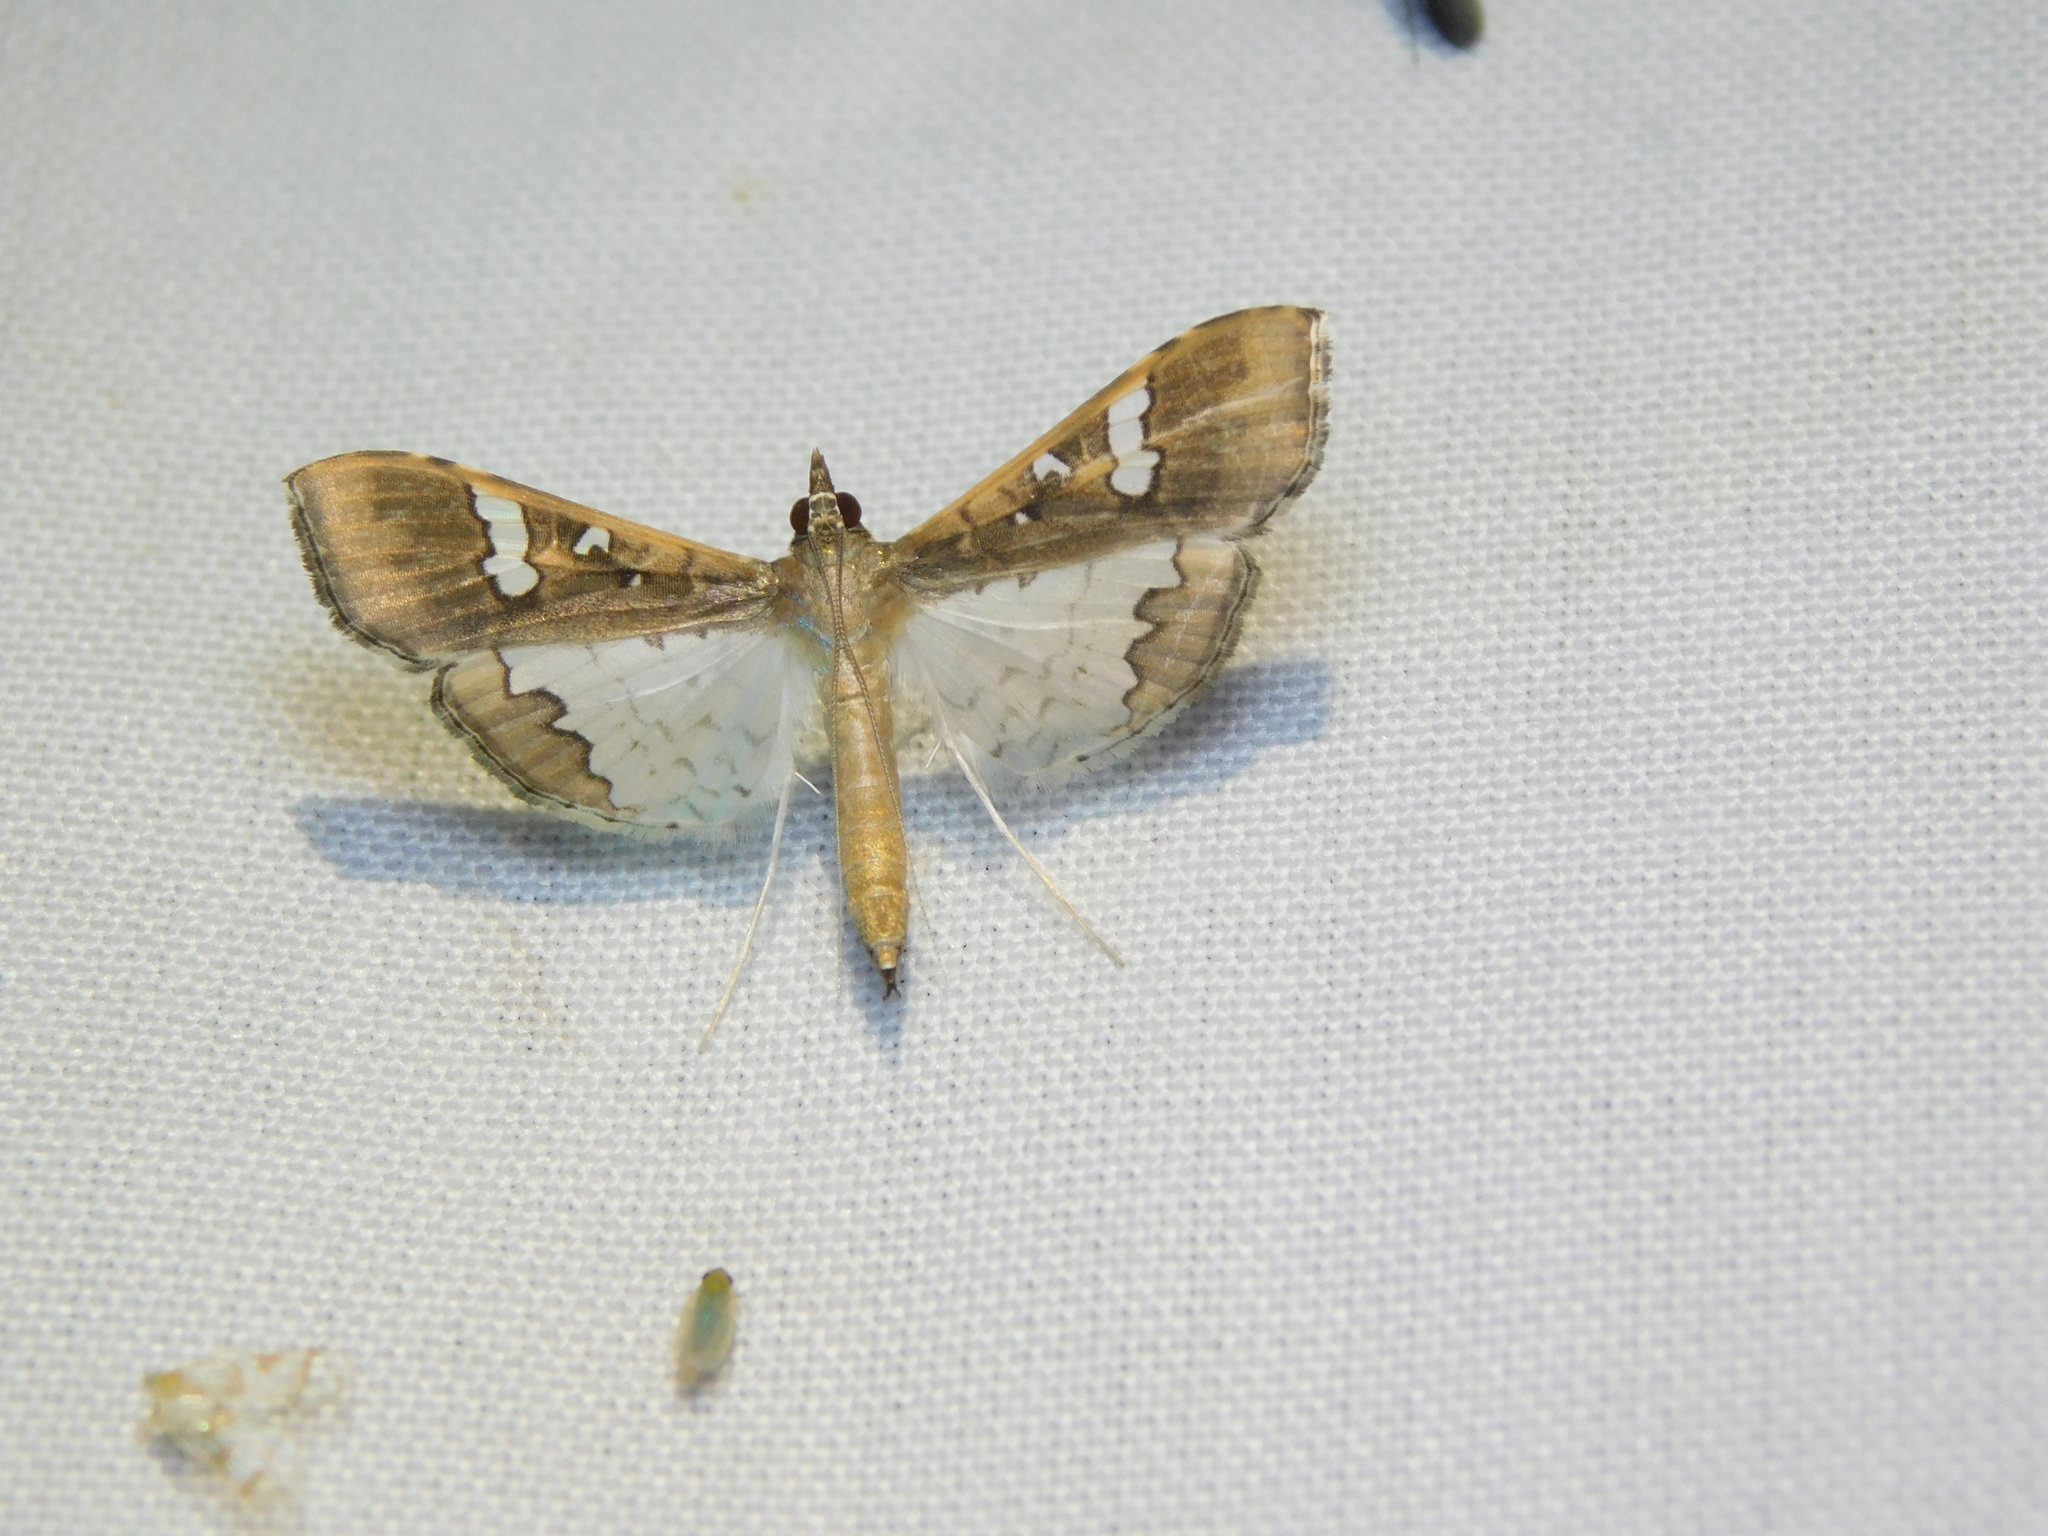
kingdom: Animalia
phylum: Arthropoda
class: Insecta
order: Lepidoptera
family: Crambidae
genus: Maruca
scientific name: Maruca vitrata
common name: Maruca pod borer
